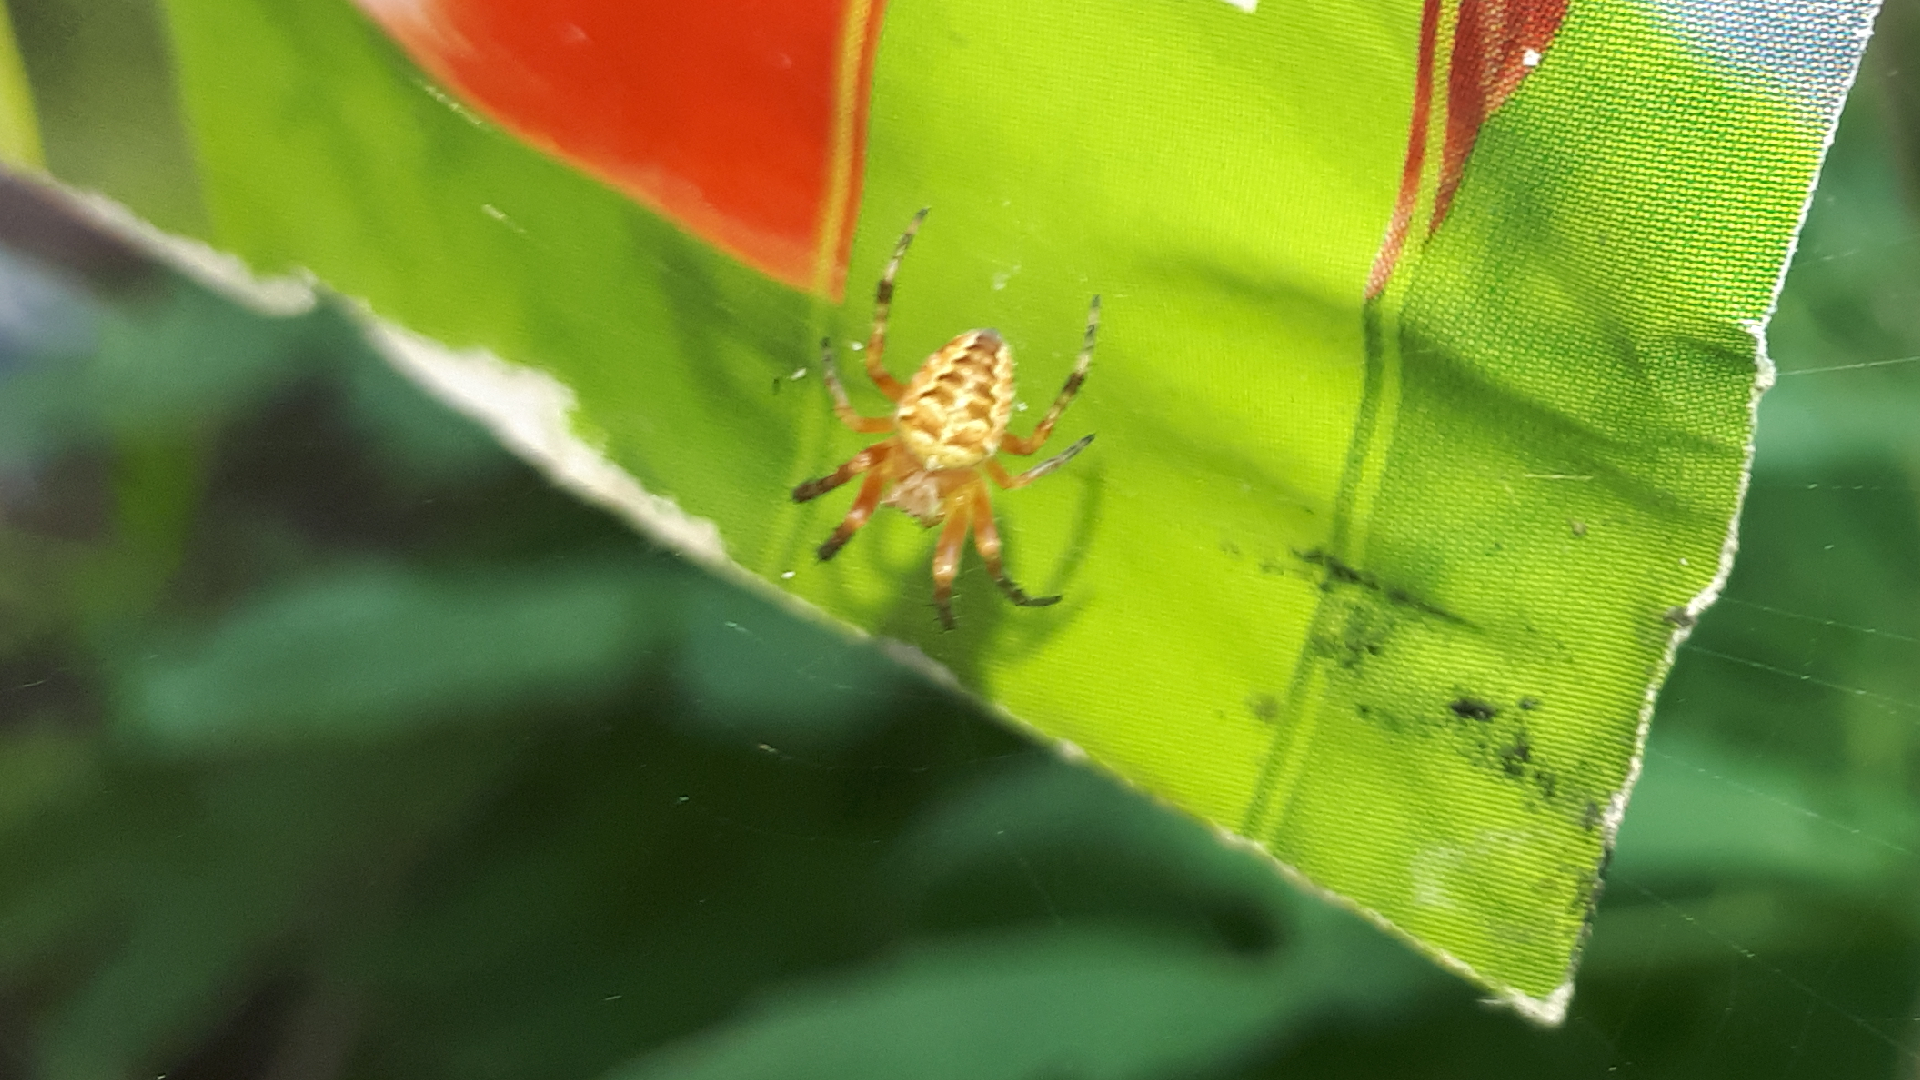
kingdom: Animalia
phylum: Arthropoda
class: Arachnida
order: Araneae
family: Araneidae
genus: Araneus
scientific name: Araneus diadematus
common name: Cross orbweaver
